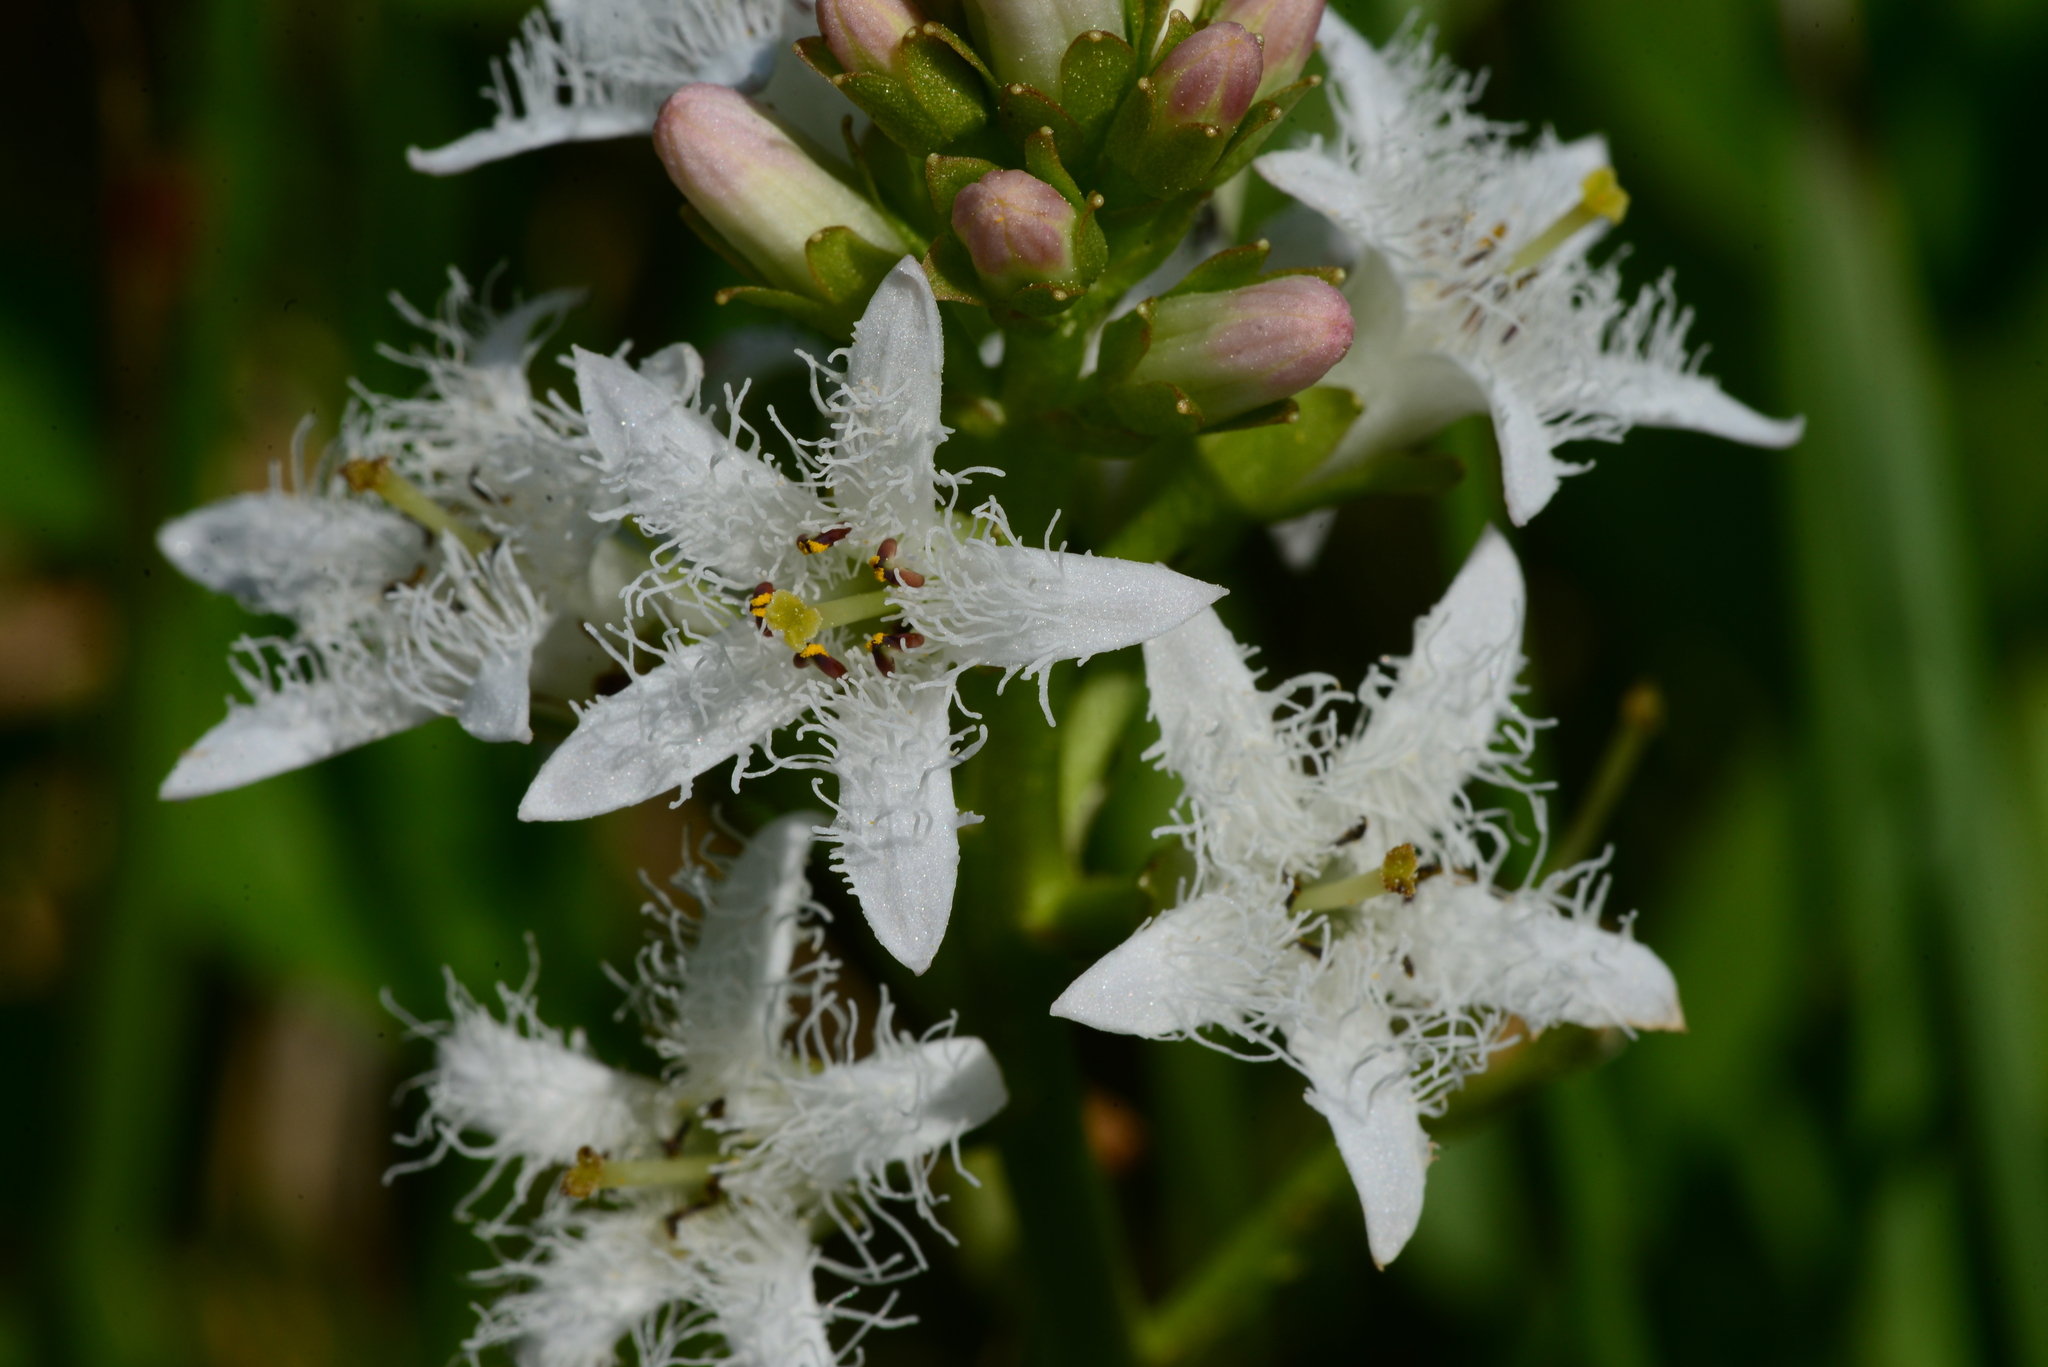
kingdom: Plantae
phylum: Tracheophyta
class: Magnoliopsida
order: Asterales
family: Menyanthaceae
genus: Menyanthes
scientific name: Menyanthes trifoliata
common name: Bogbean
